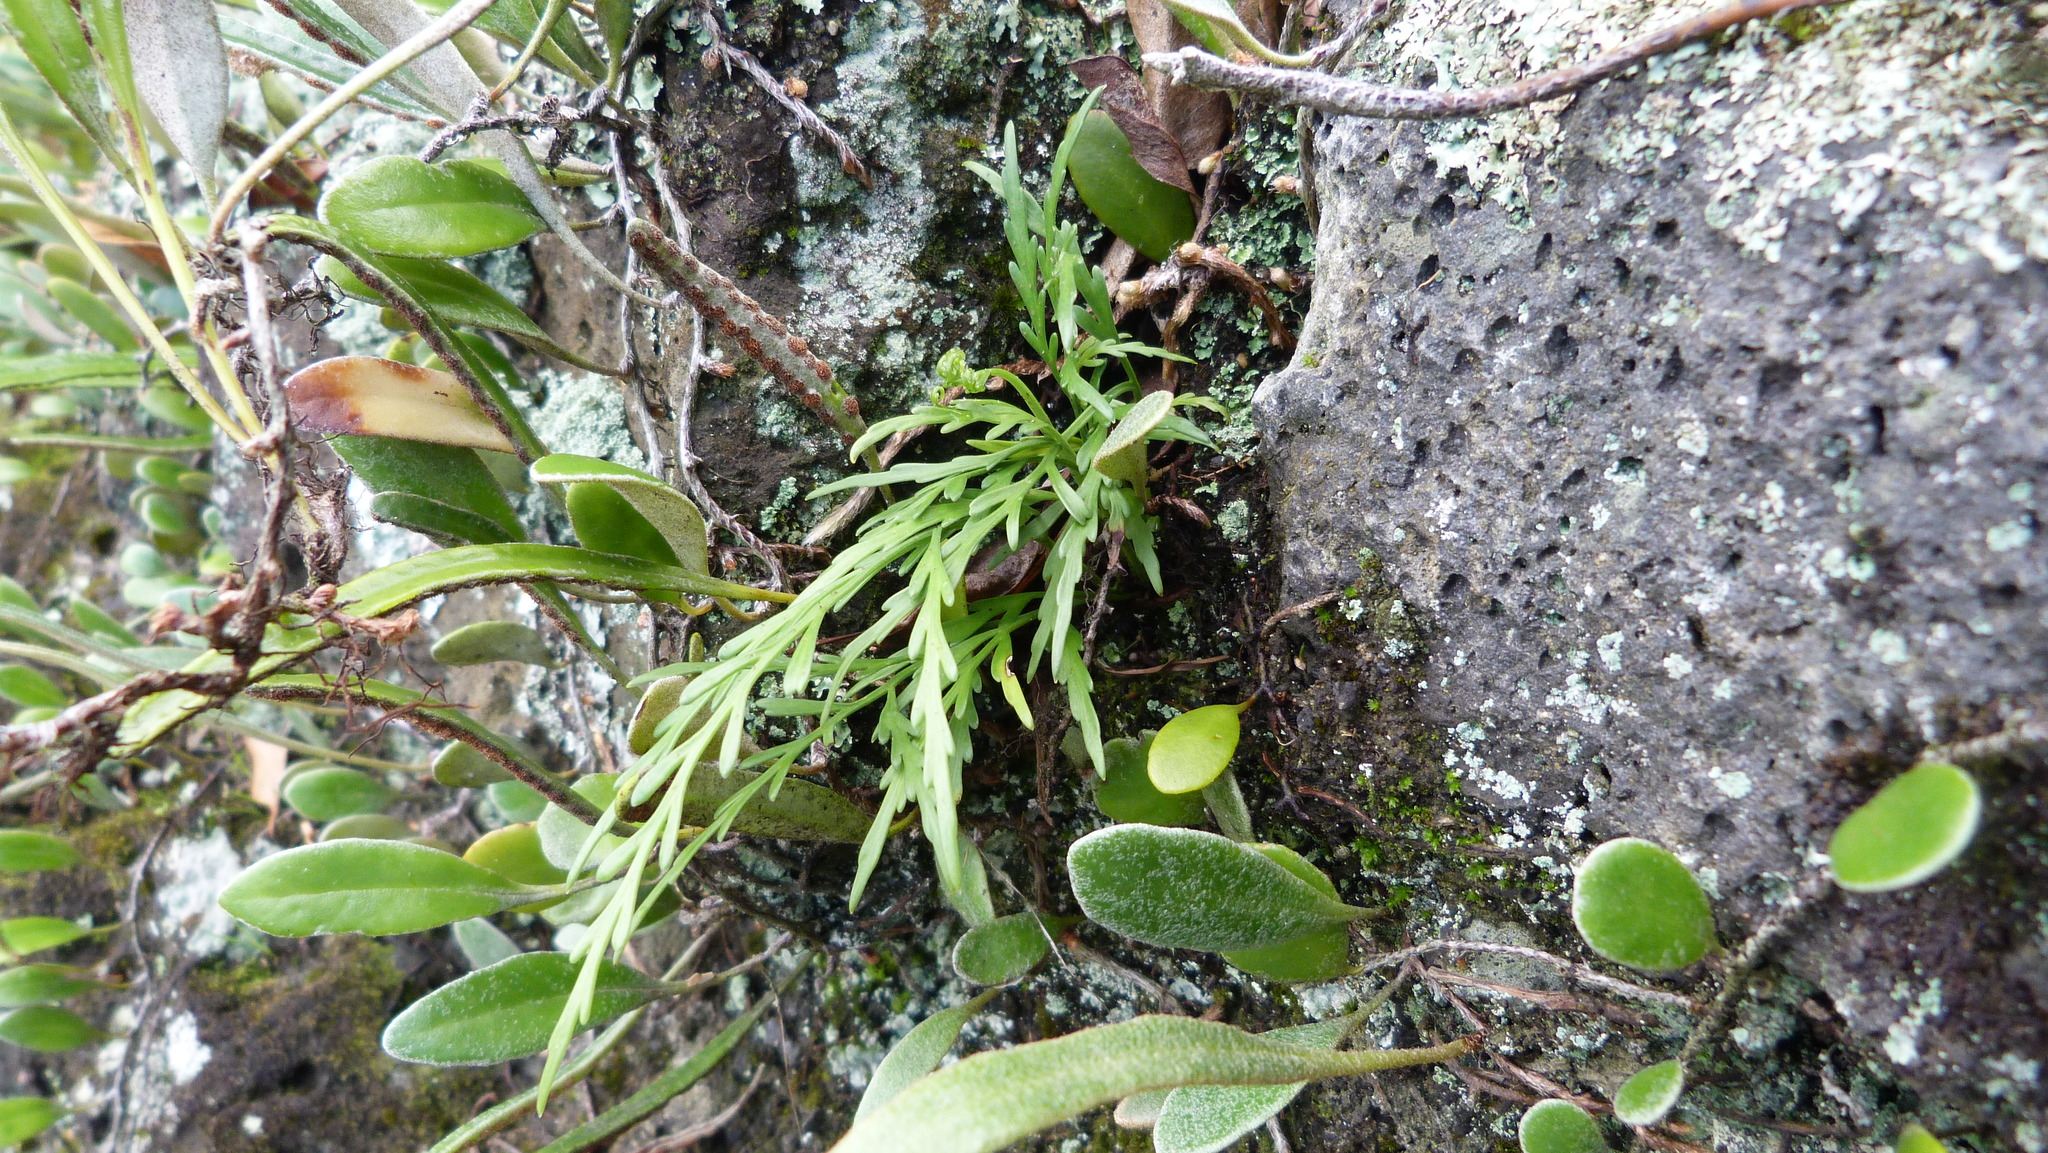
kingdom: Plantae
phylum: Tracheophyta
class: Polypodiopsida
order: Polypodiales
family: Aspleniaceae
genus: Asplenium
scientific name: Asplenium flaccidum
